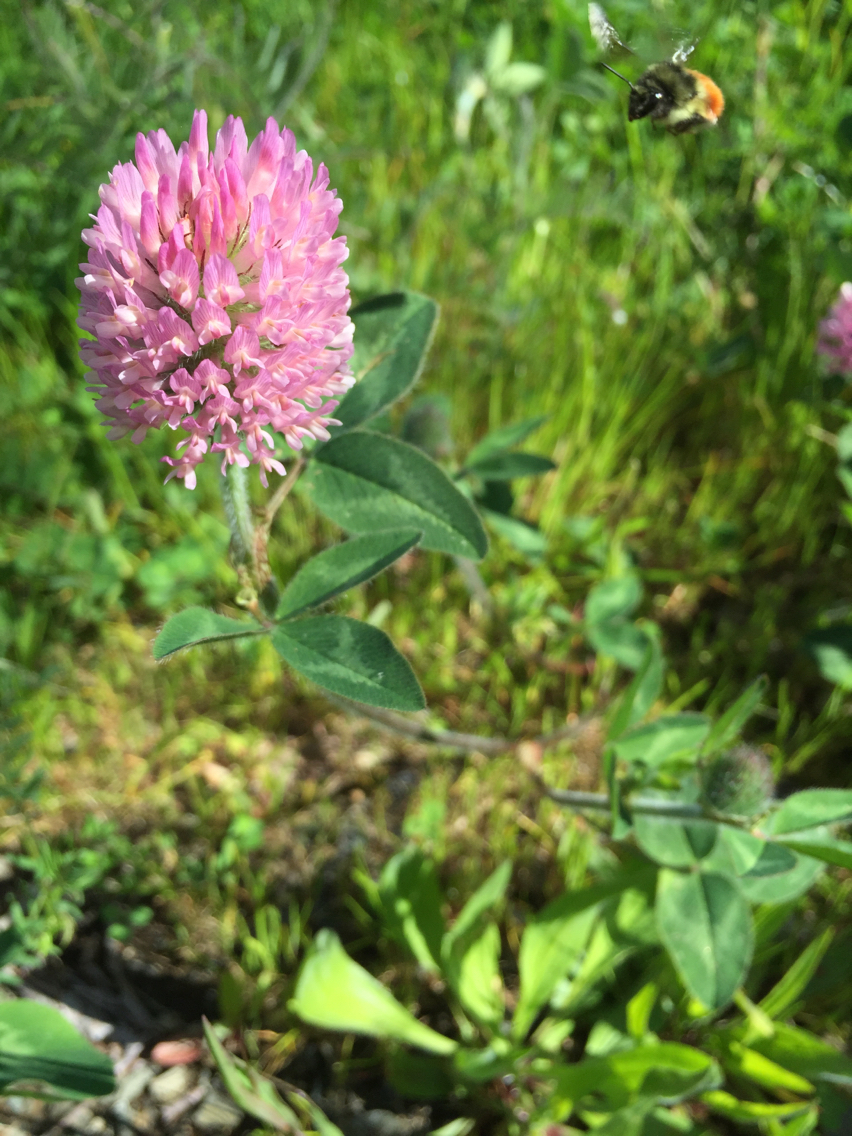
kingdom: Plantae
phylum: Tracheophyta
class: Magnoliopsida
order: Fabales
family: Fabaceae
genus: Trifolium
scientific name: Trifolium pratense
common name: Red clover
